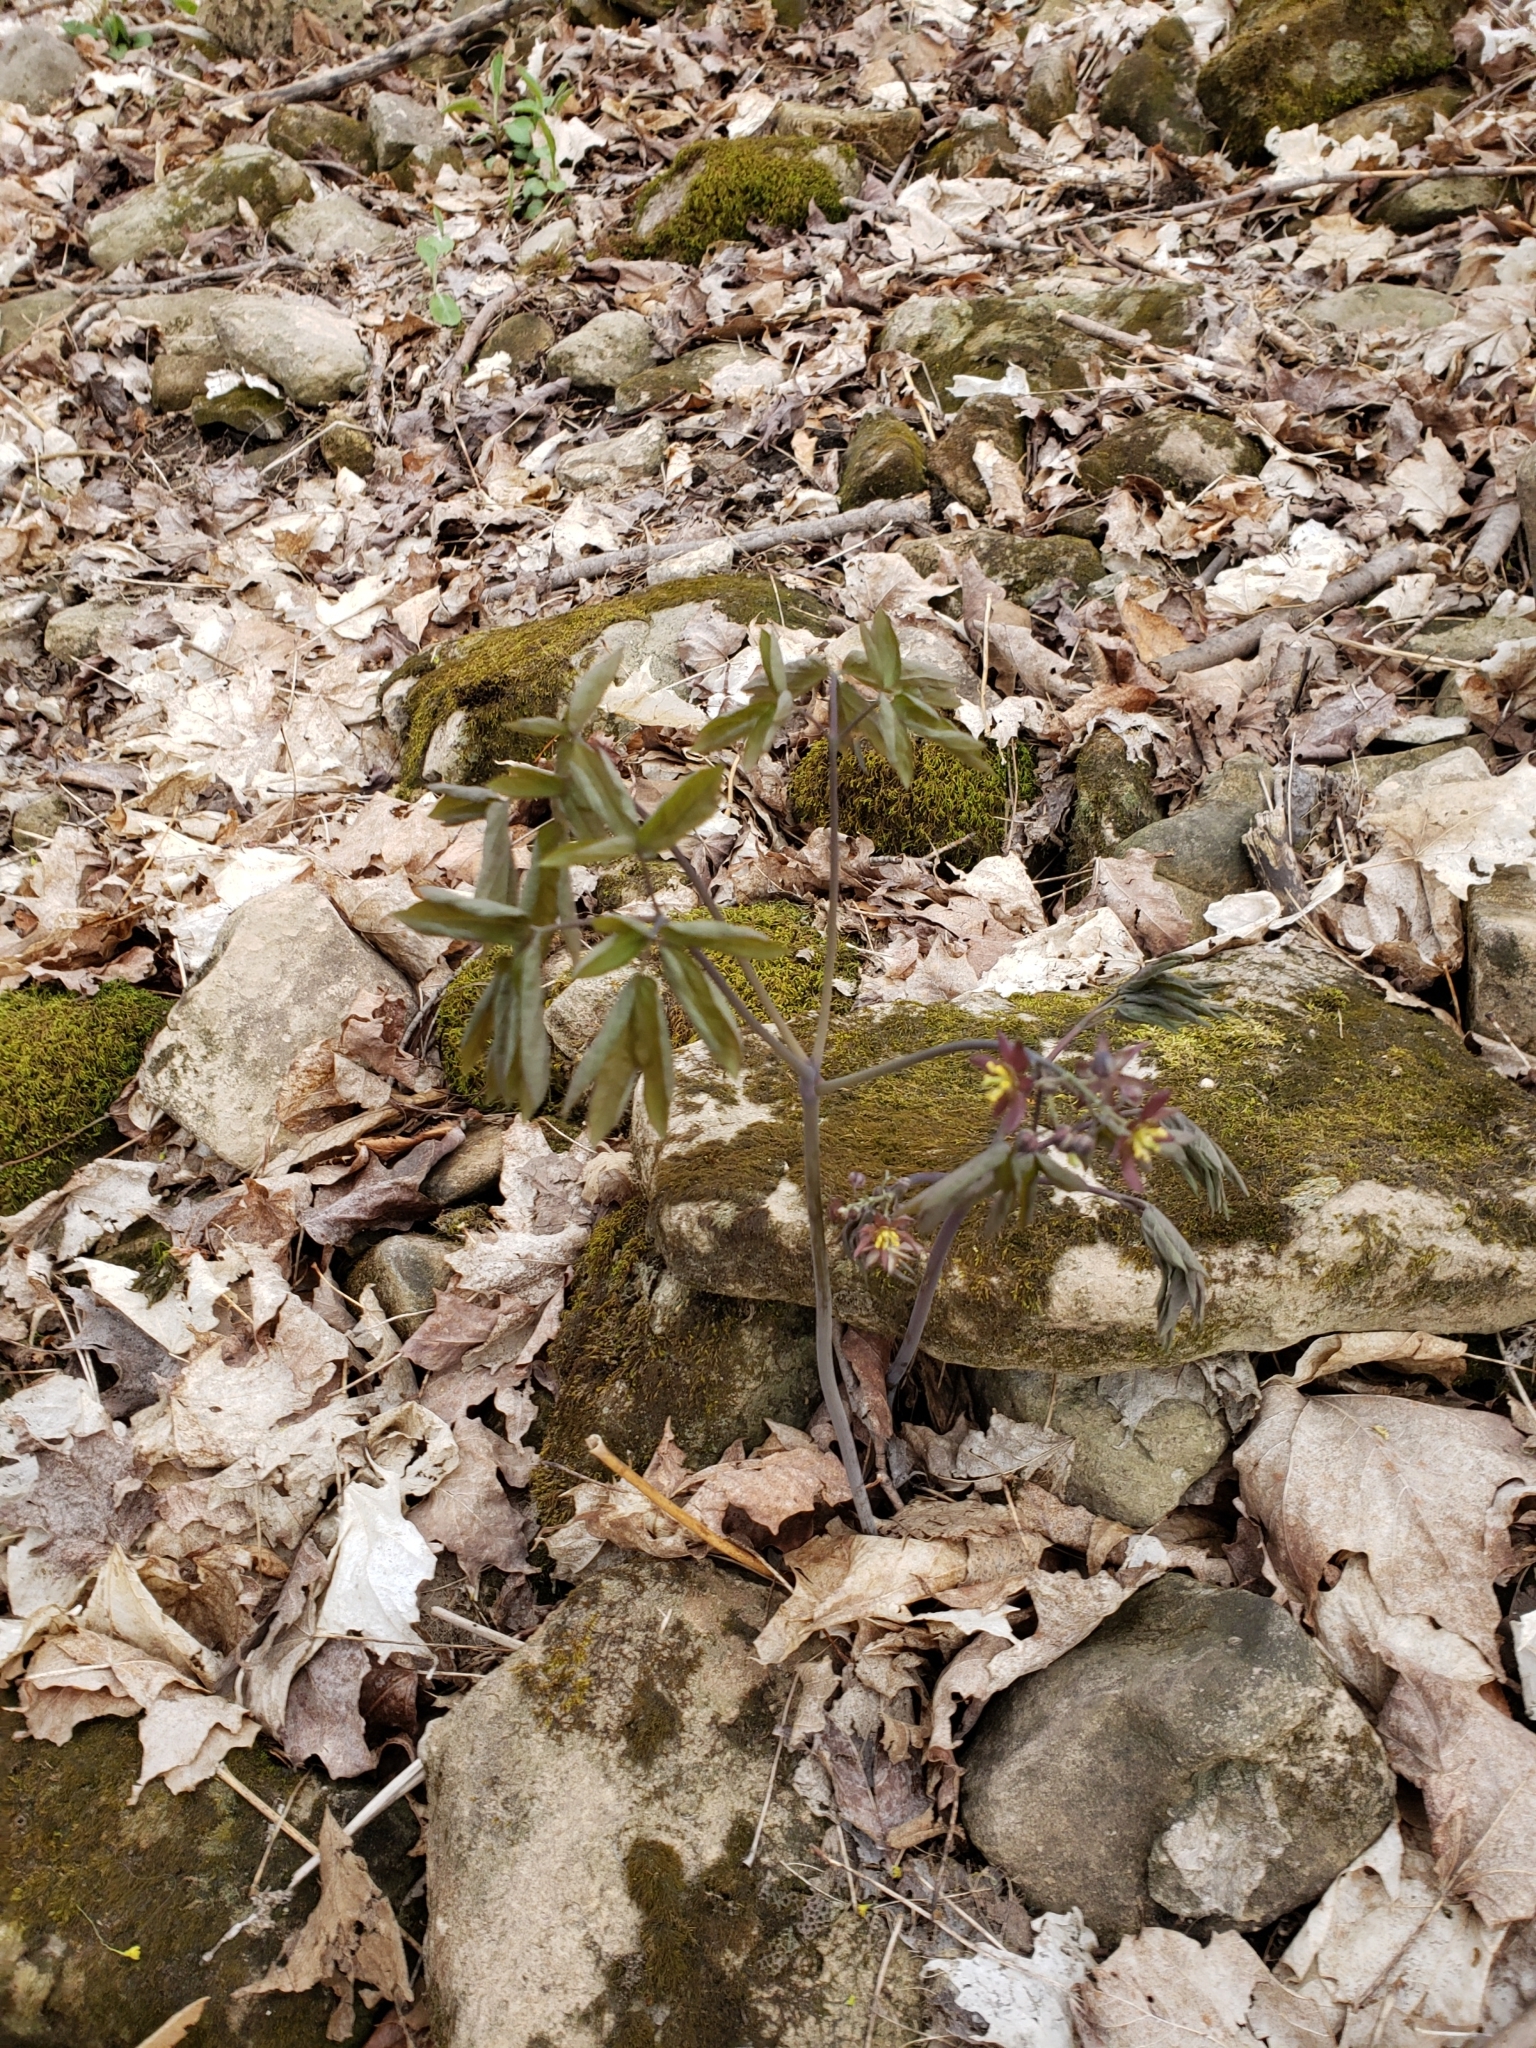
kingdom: Plantae
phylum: Tracheophyta
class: Magnoliopsida
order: Ranunculales
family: Berberidaceae
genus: Caulophyllum
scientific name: Caulophyllum giganteum
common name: Blue cohosh
